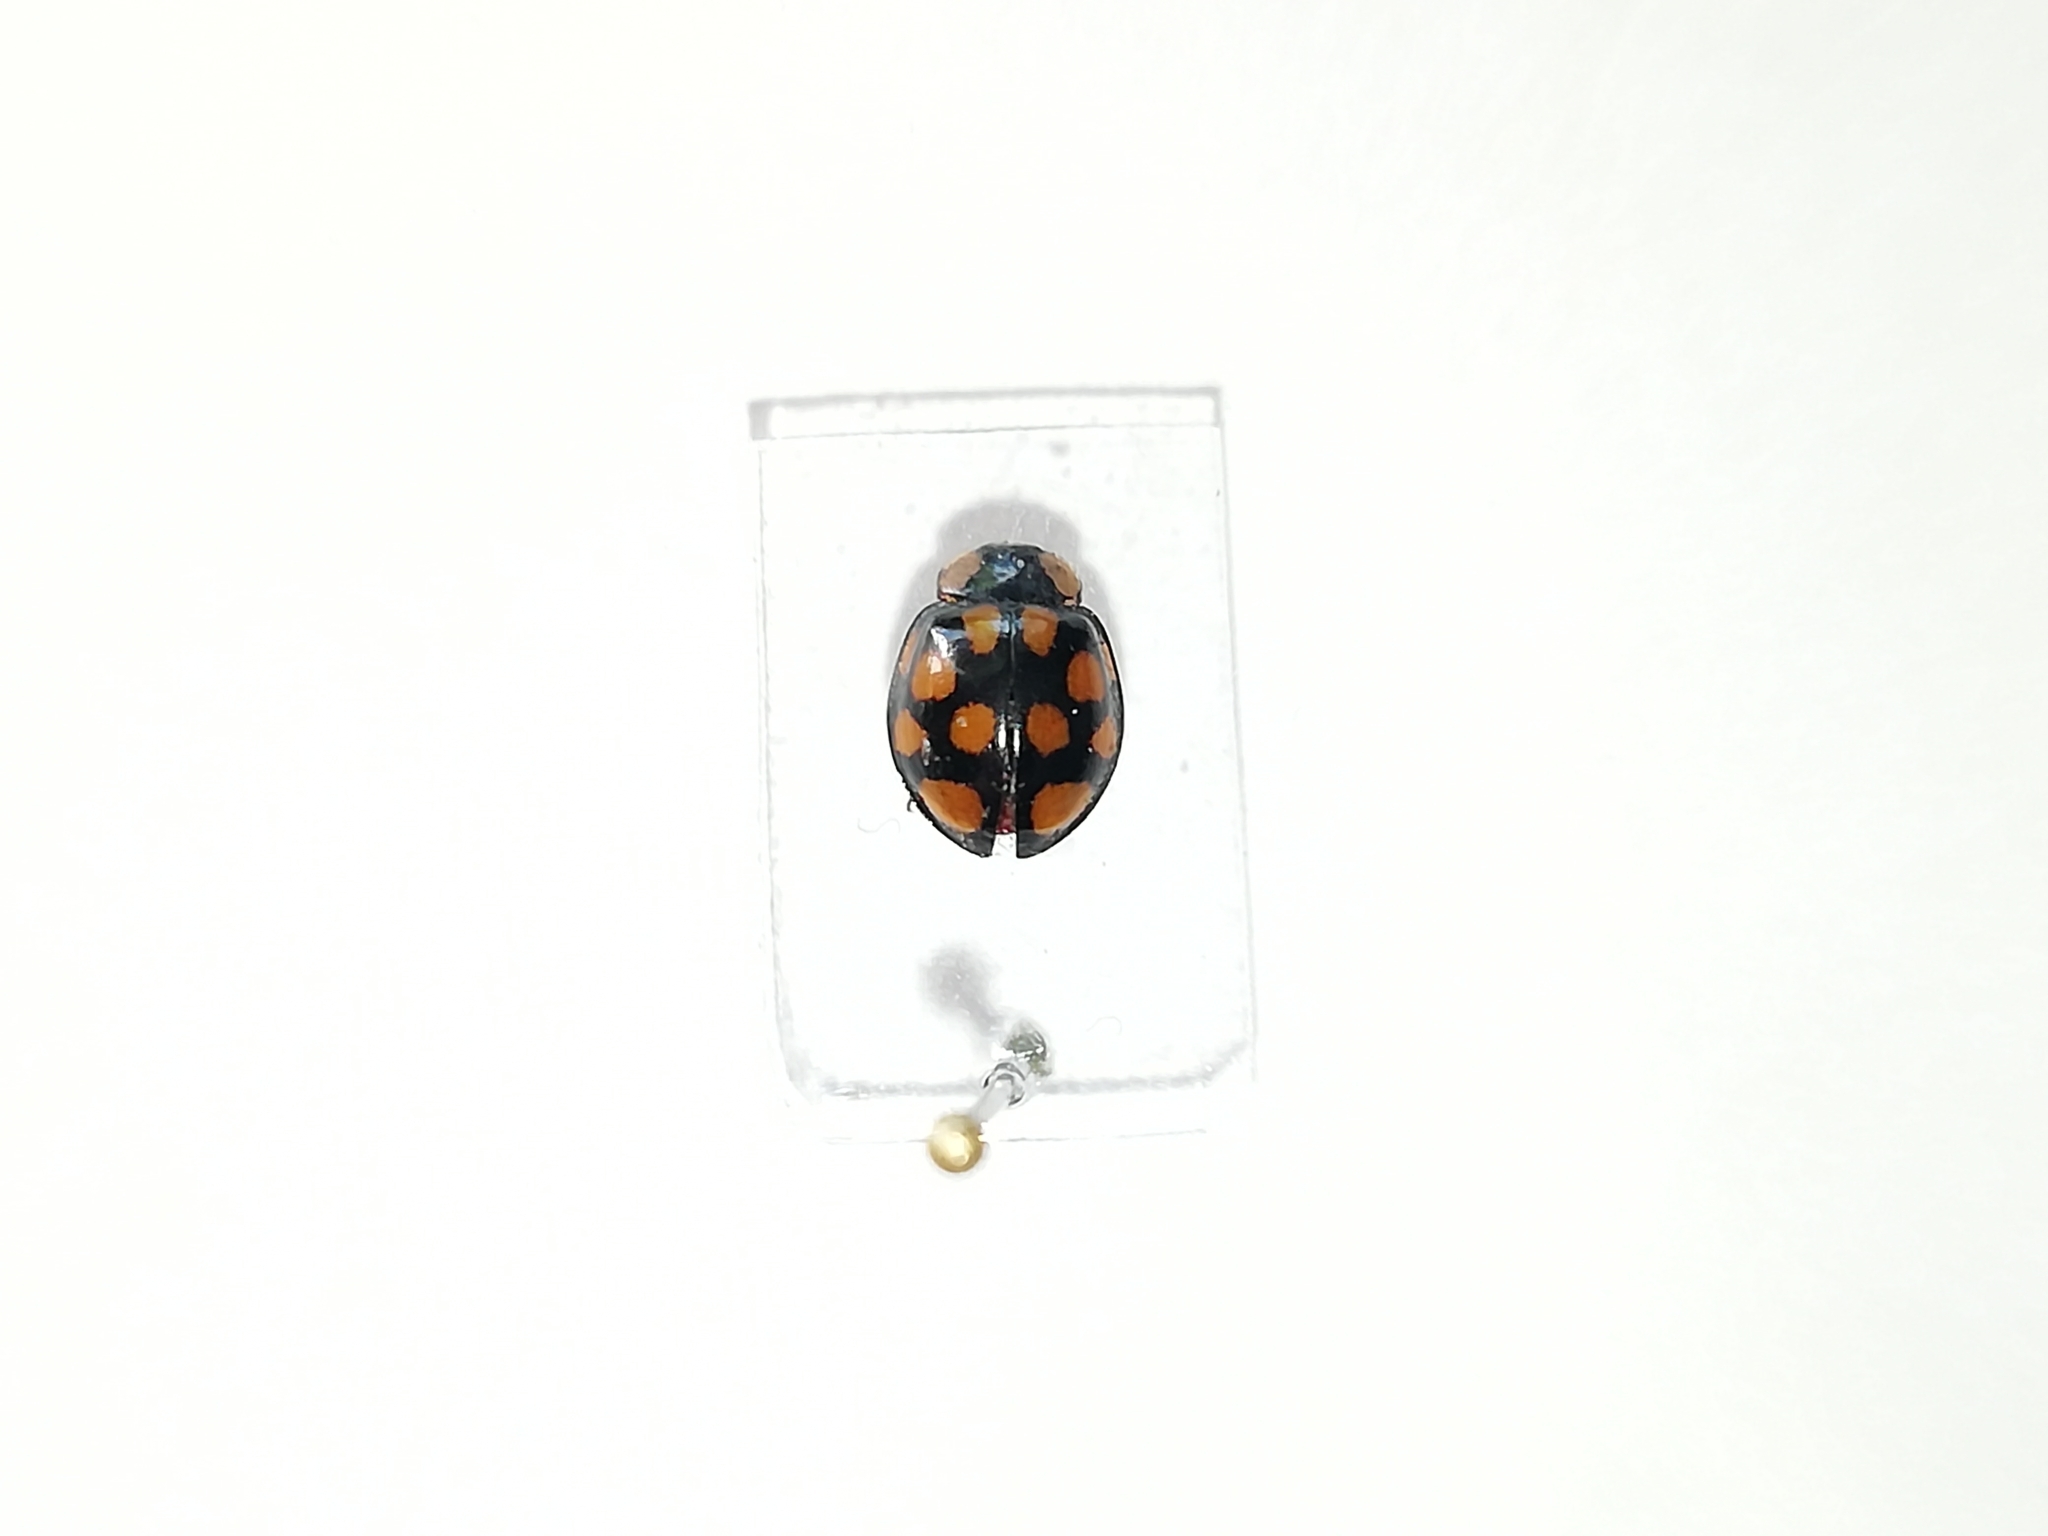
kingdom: Animalia
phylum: Arthropoda
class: Insecta
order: Coleoptera
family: Coccinellidae
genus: Harmonia
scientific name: Harmonia axyridis
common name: Harlequin ladybird
